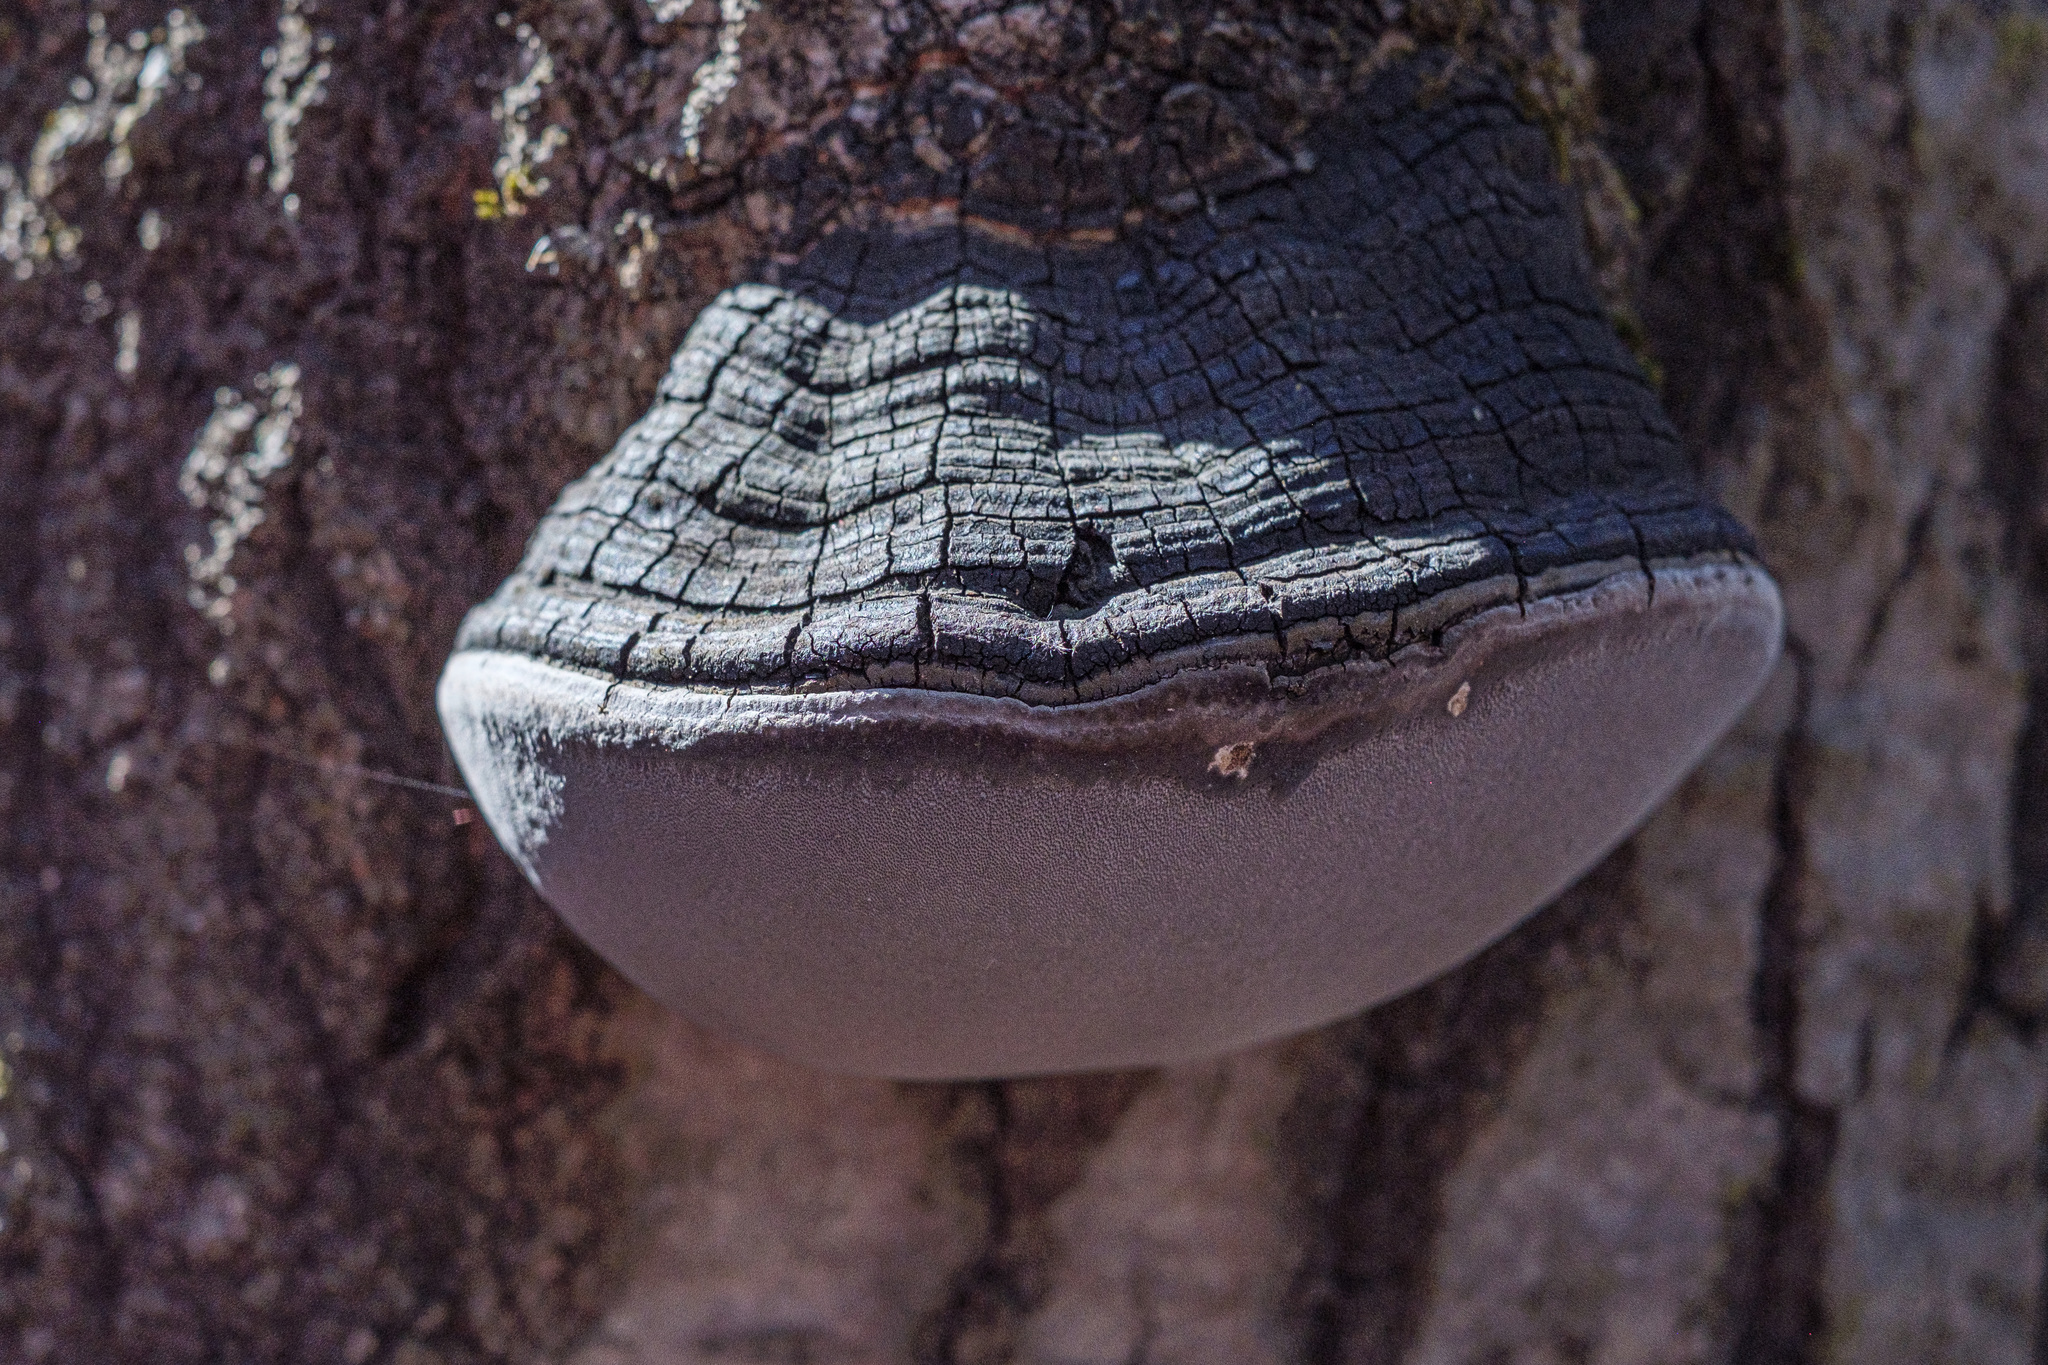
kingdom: Fungi
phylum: Basidiomycota
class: Agaricomycetes
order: Hymenochaetales
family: Hymenochaetaceae
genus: Phellinus
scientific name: Phellinus tremulae
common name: Aspen bracket
